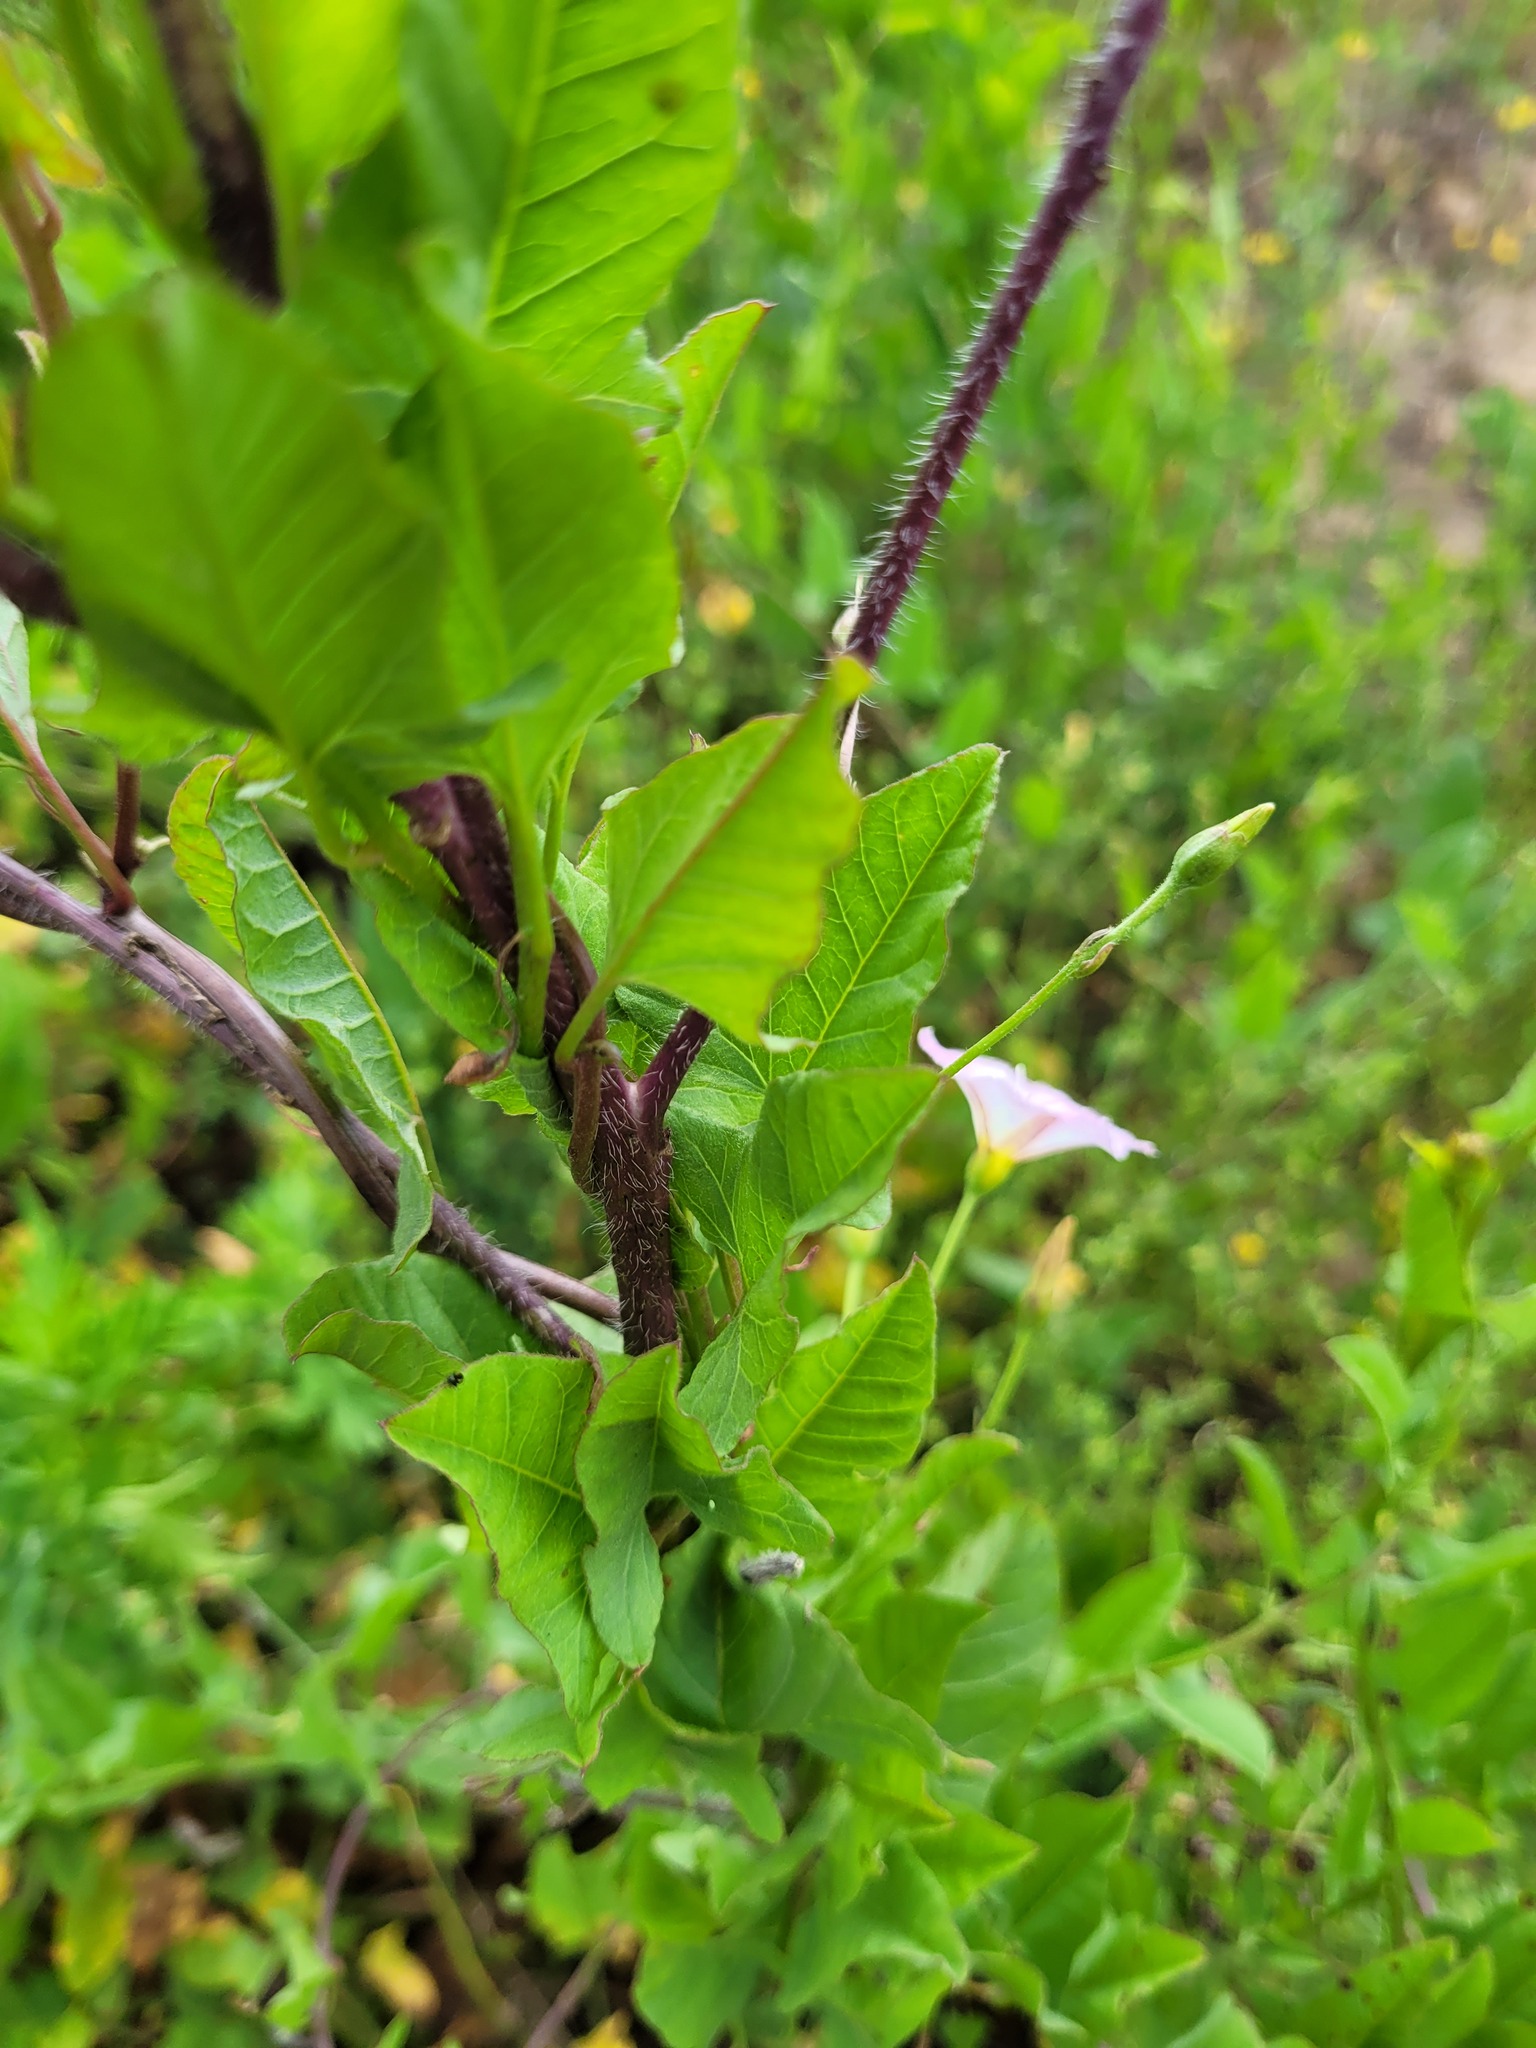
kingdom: Plantae
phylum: Tracheophyta
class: Magnoliopsida
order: Brassicales
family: Brassicaceae
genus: Sisymbrium
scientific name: Sisymbrium loeselii
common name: False london-rocket
